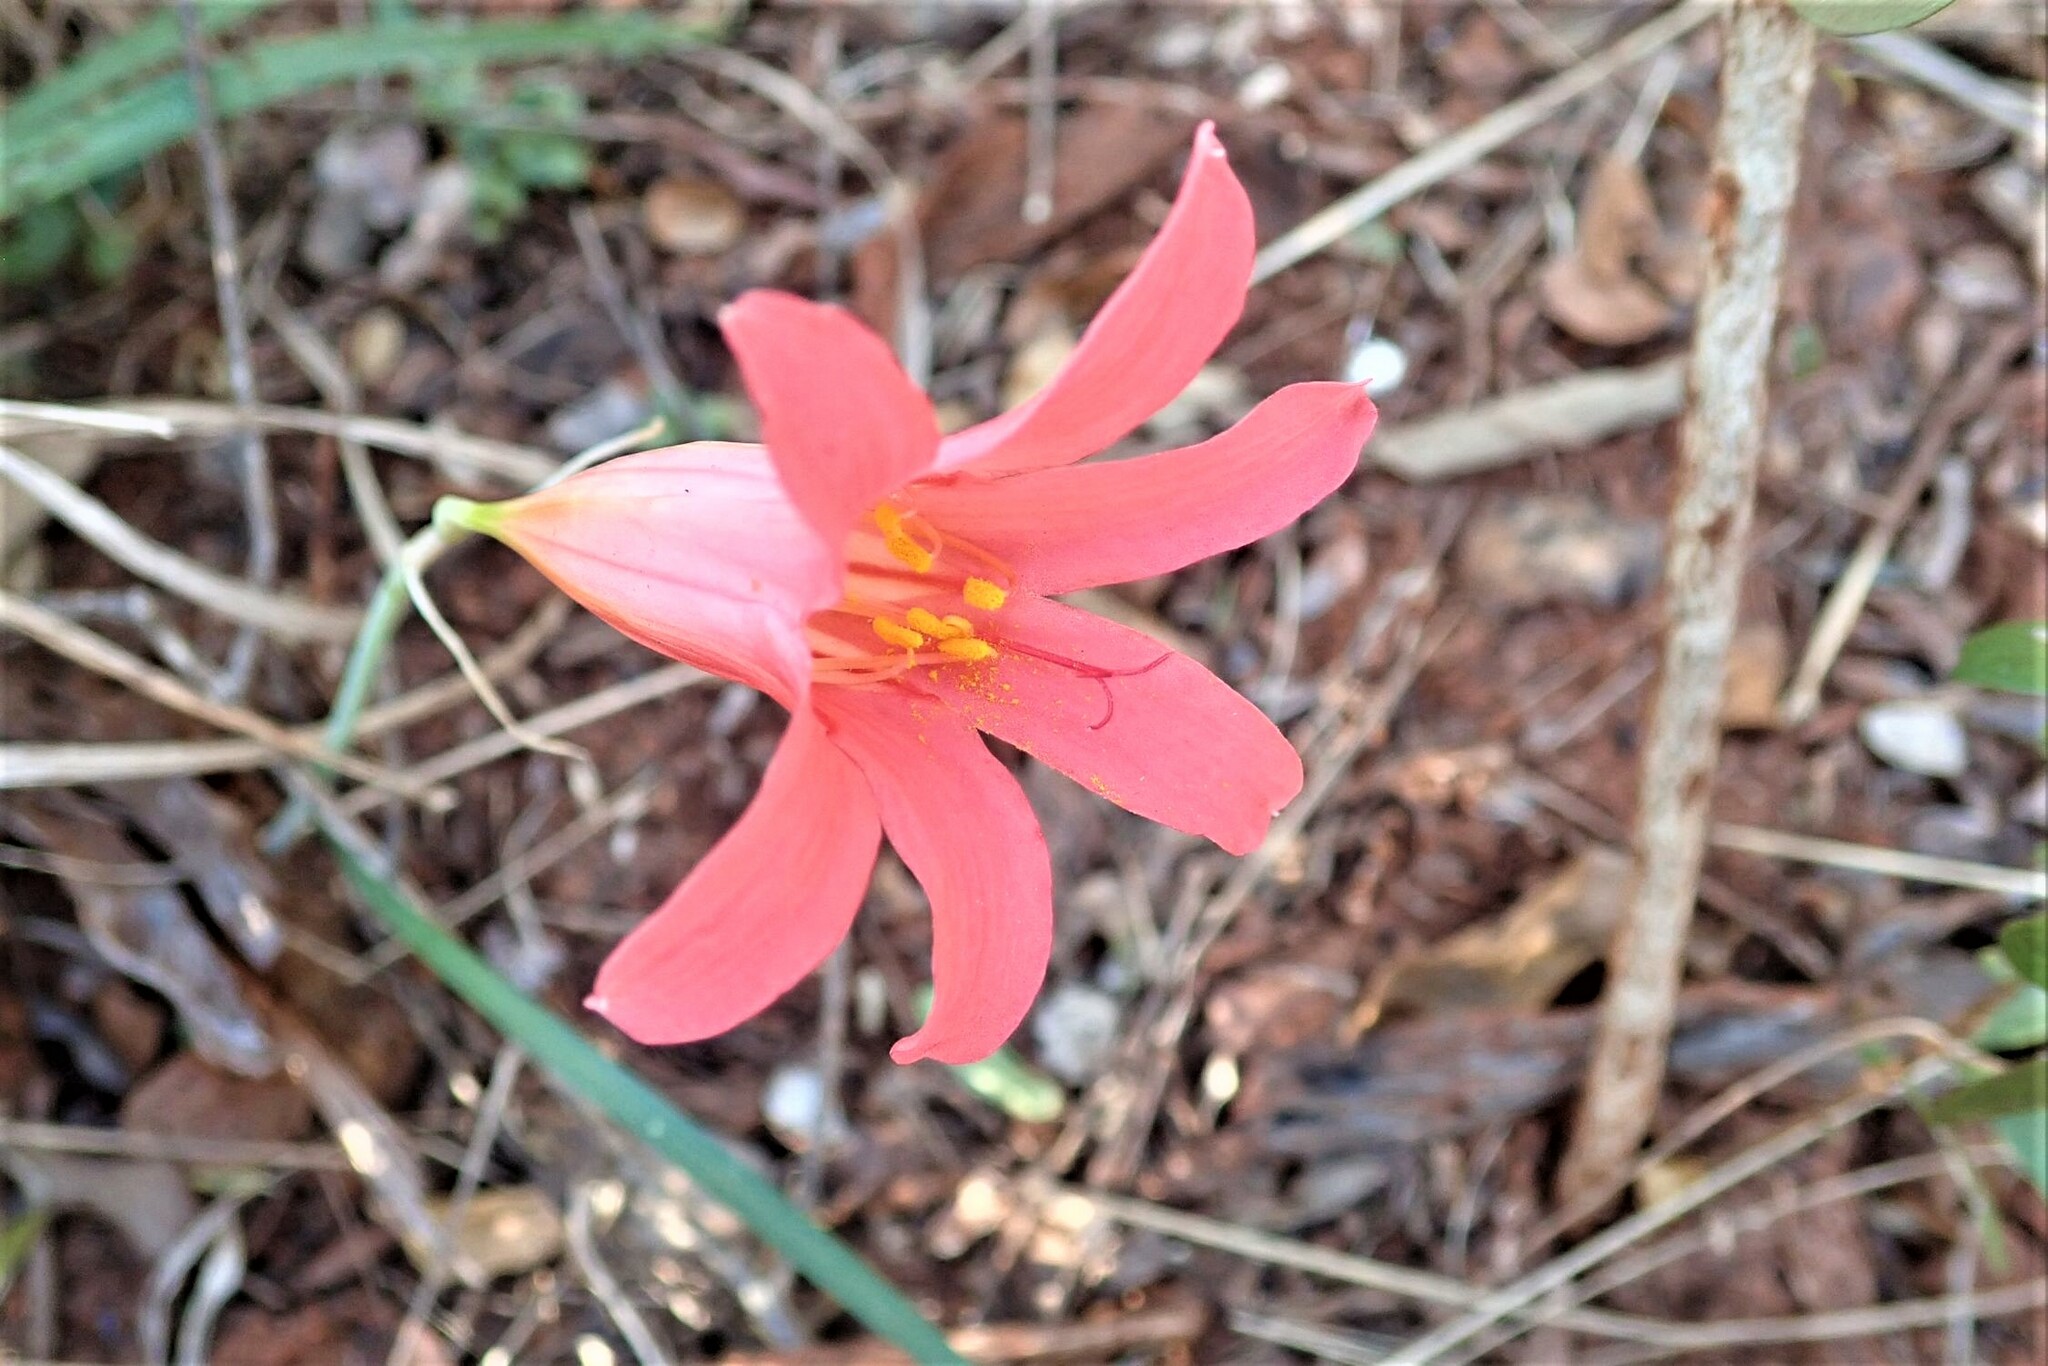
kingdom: Plantae
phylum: Tracheophyta
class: Liliopsida
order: Asparagales
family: Amaryllidaceae
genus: Cyrtanthus
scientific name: Cyrtanthus galpinii
